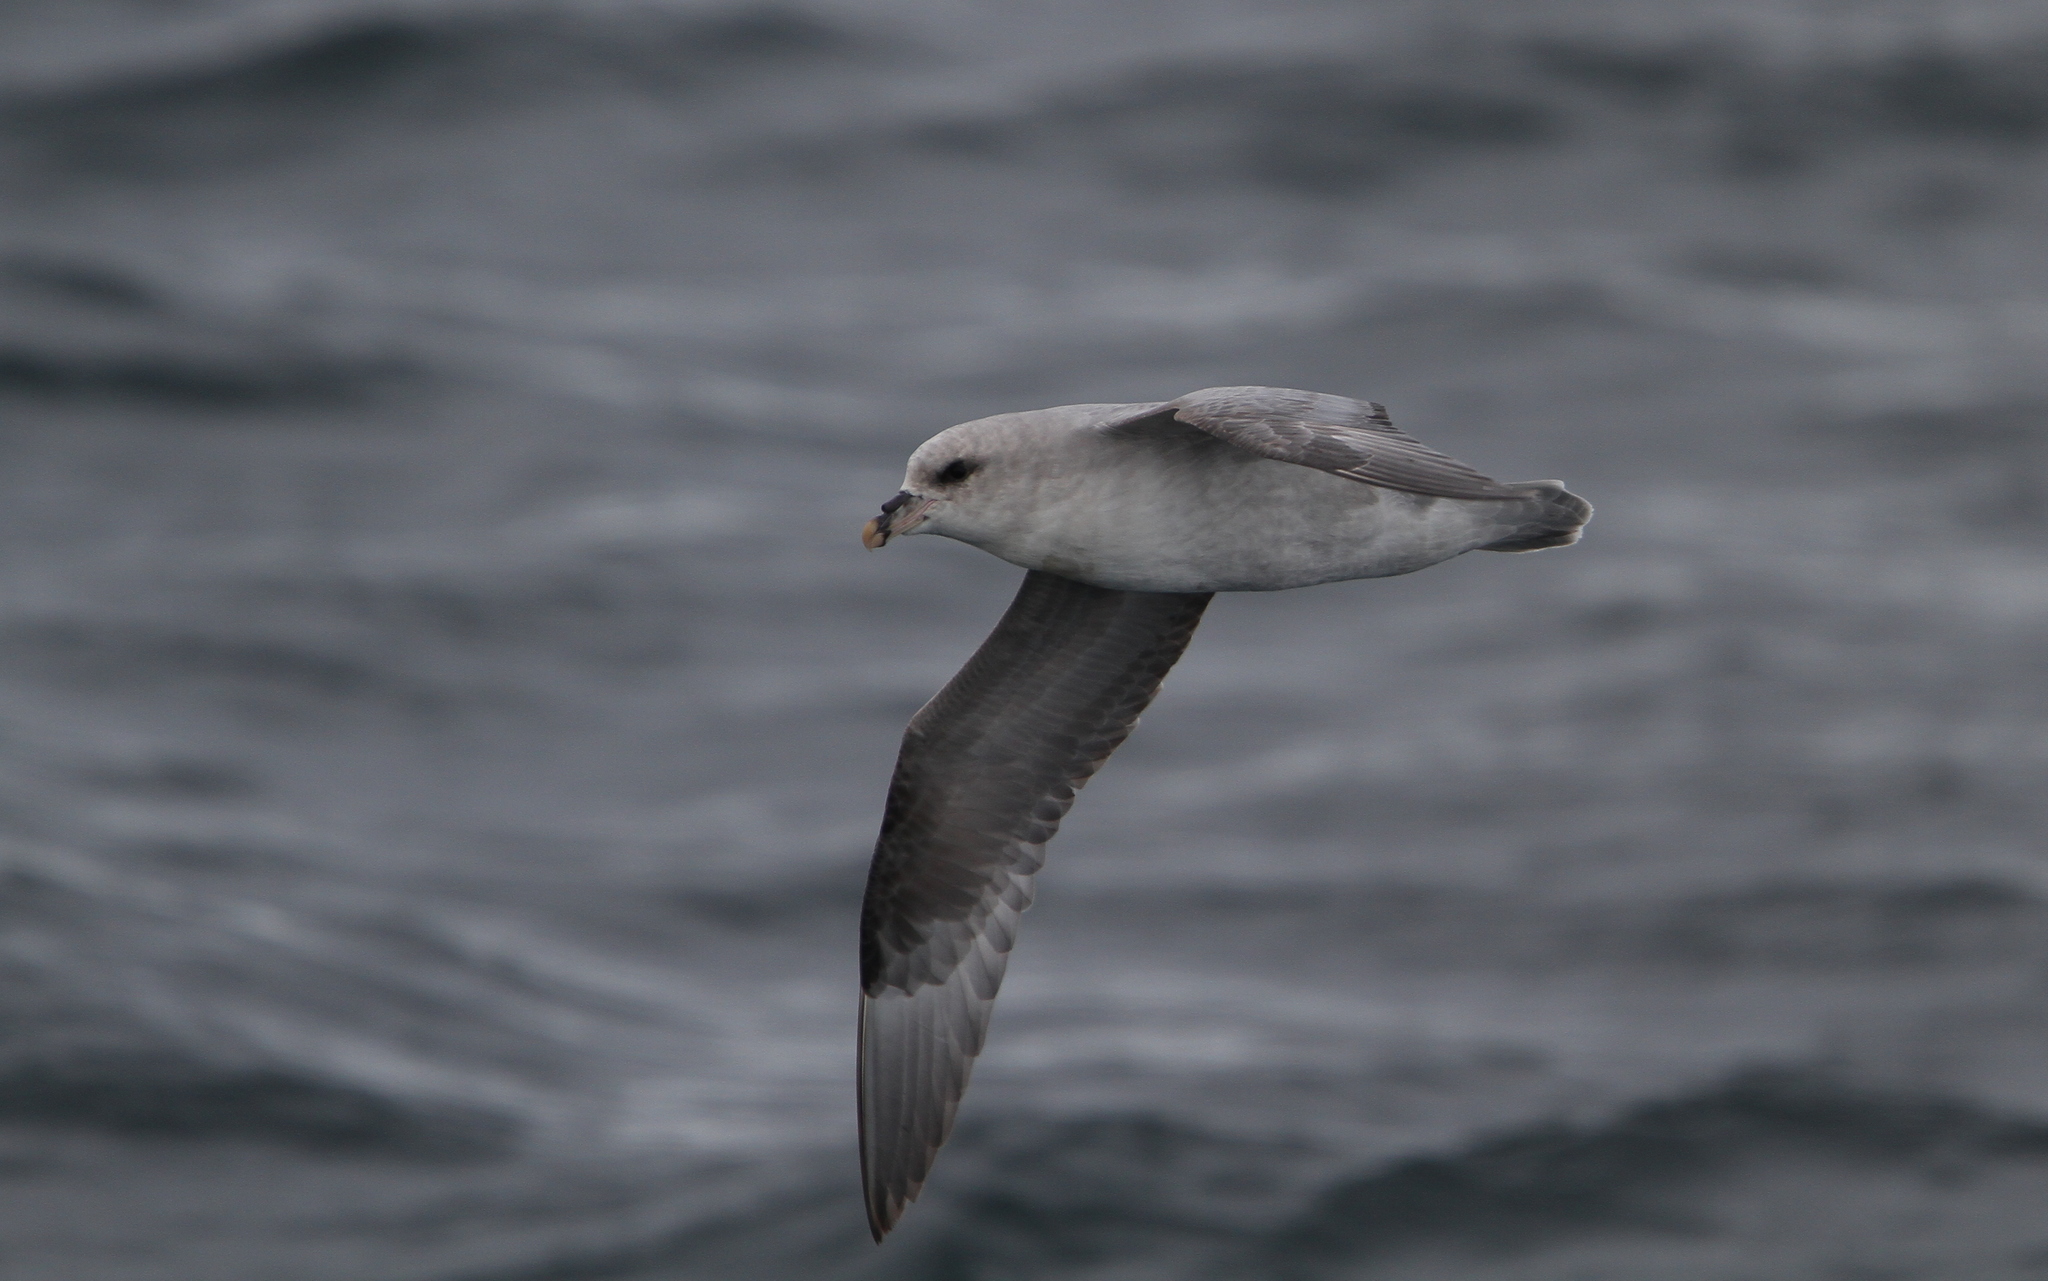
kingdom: Animalia
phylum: Chordata
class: Aves
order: Procellariiformes
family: Procellariidae
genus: Fulmarus
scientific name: Fulmarus glacialis
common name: Northern fulmar
